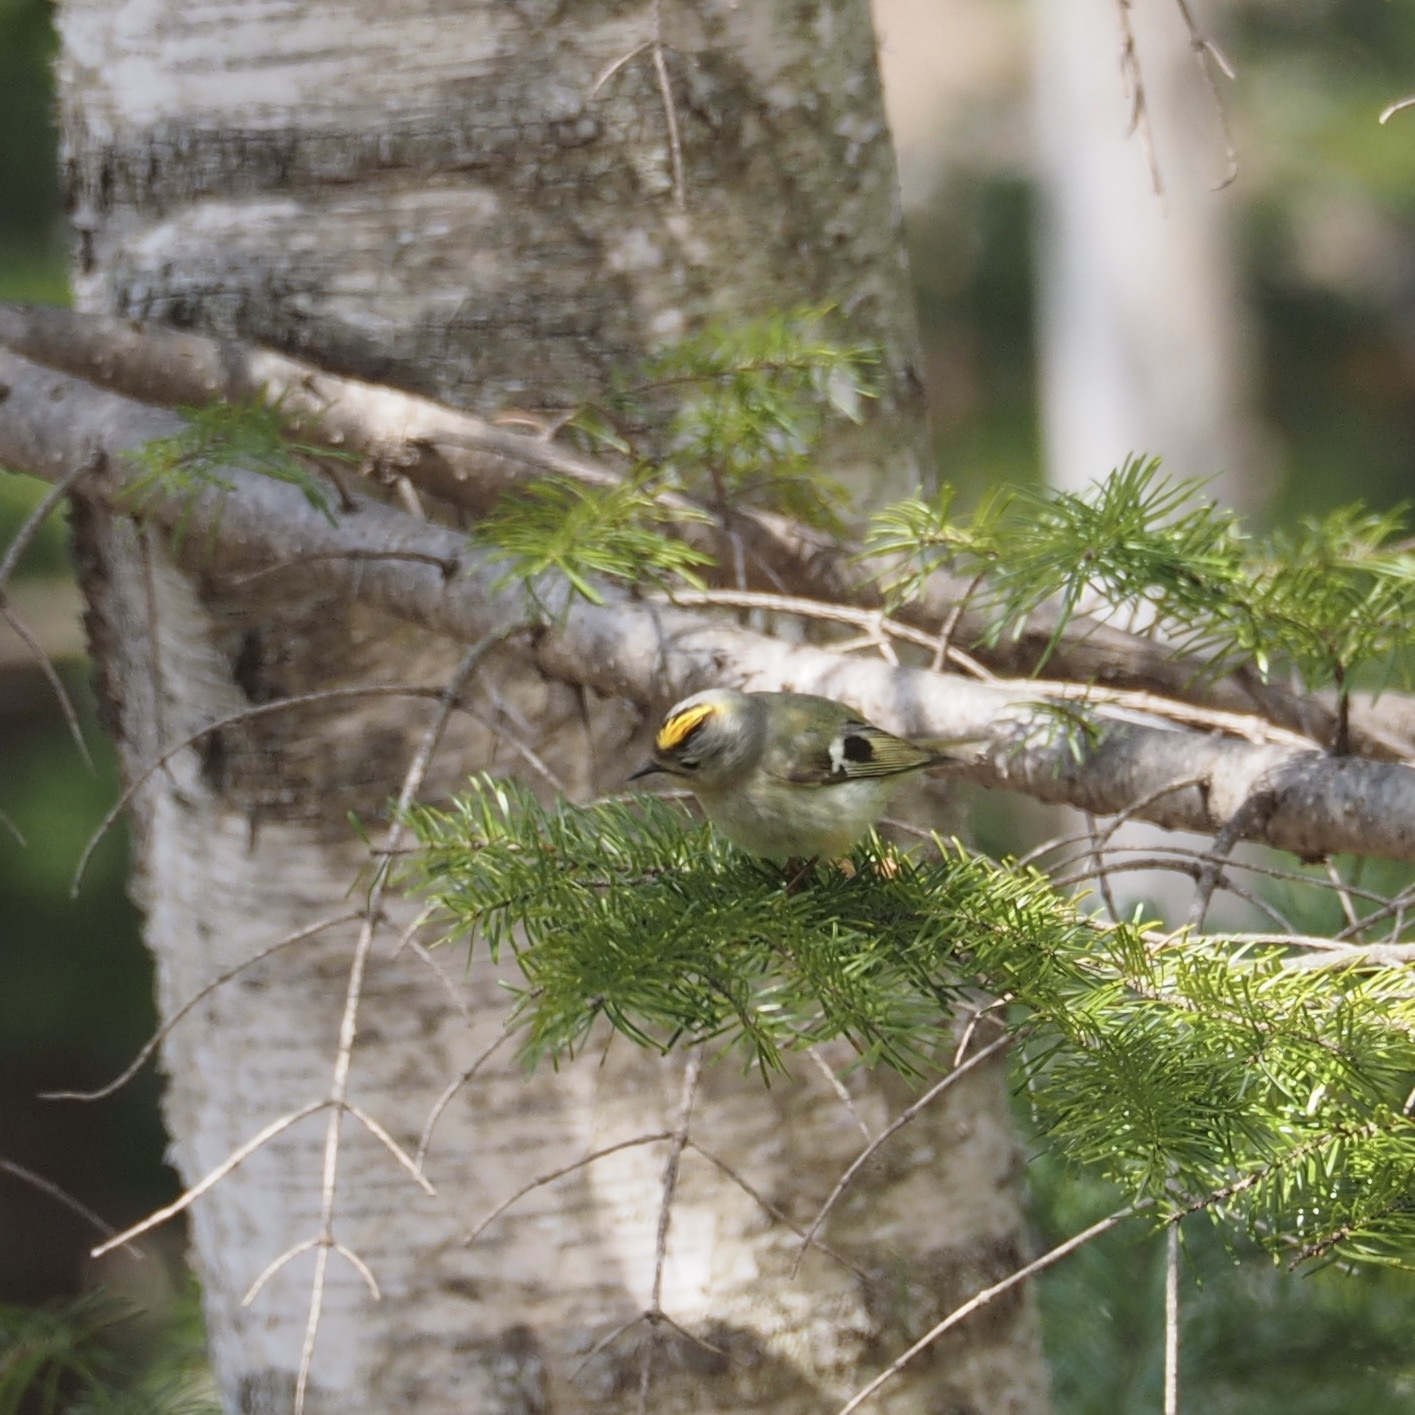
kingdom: Animalia
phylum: Chordata
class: Aves
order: Passeriformes
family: Regulidae
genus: Regulus
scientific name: Regulus regulus
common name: Goldcrest
